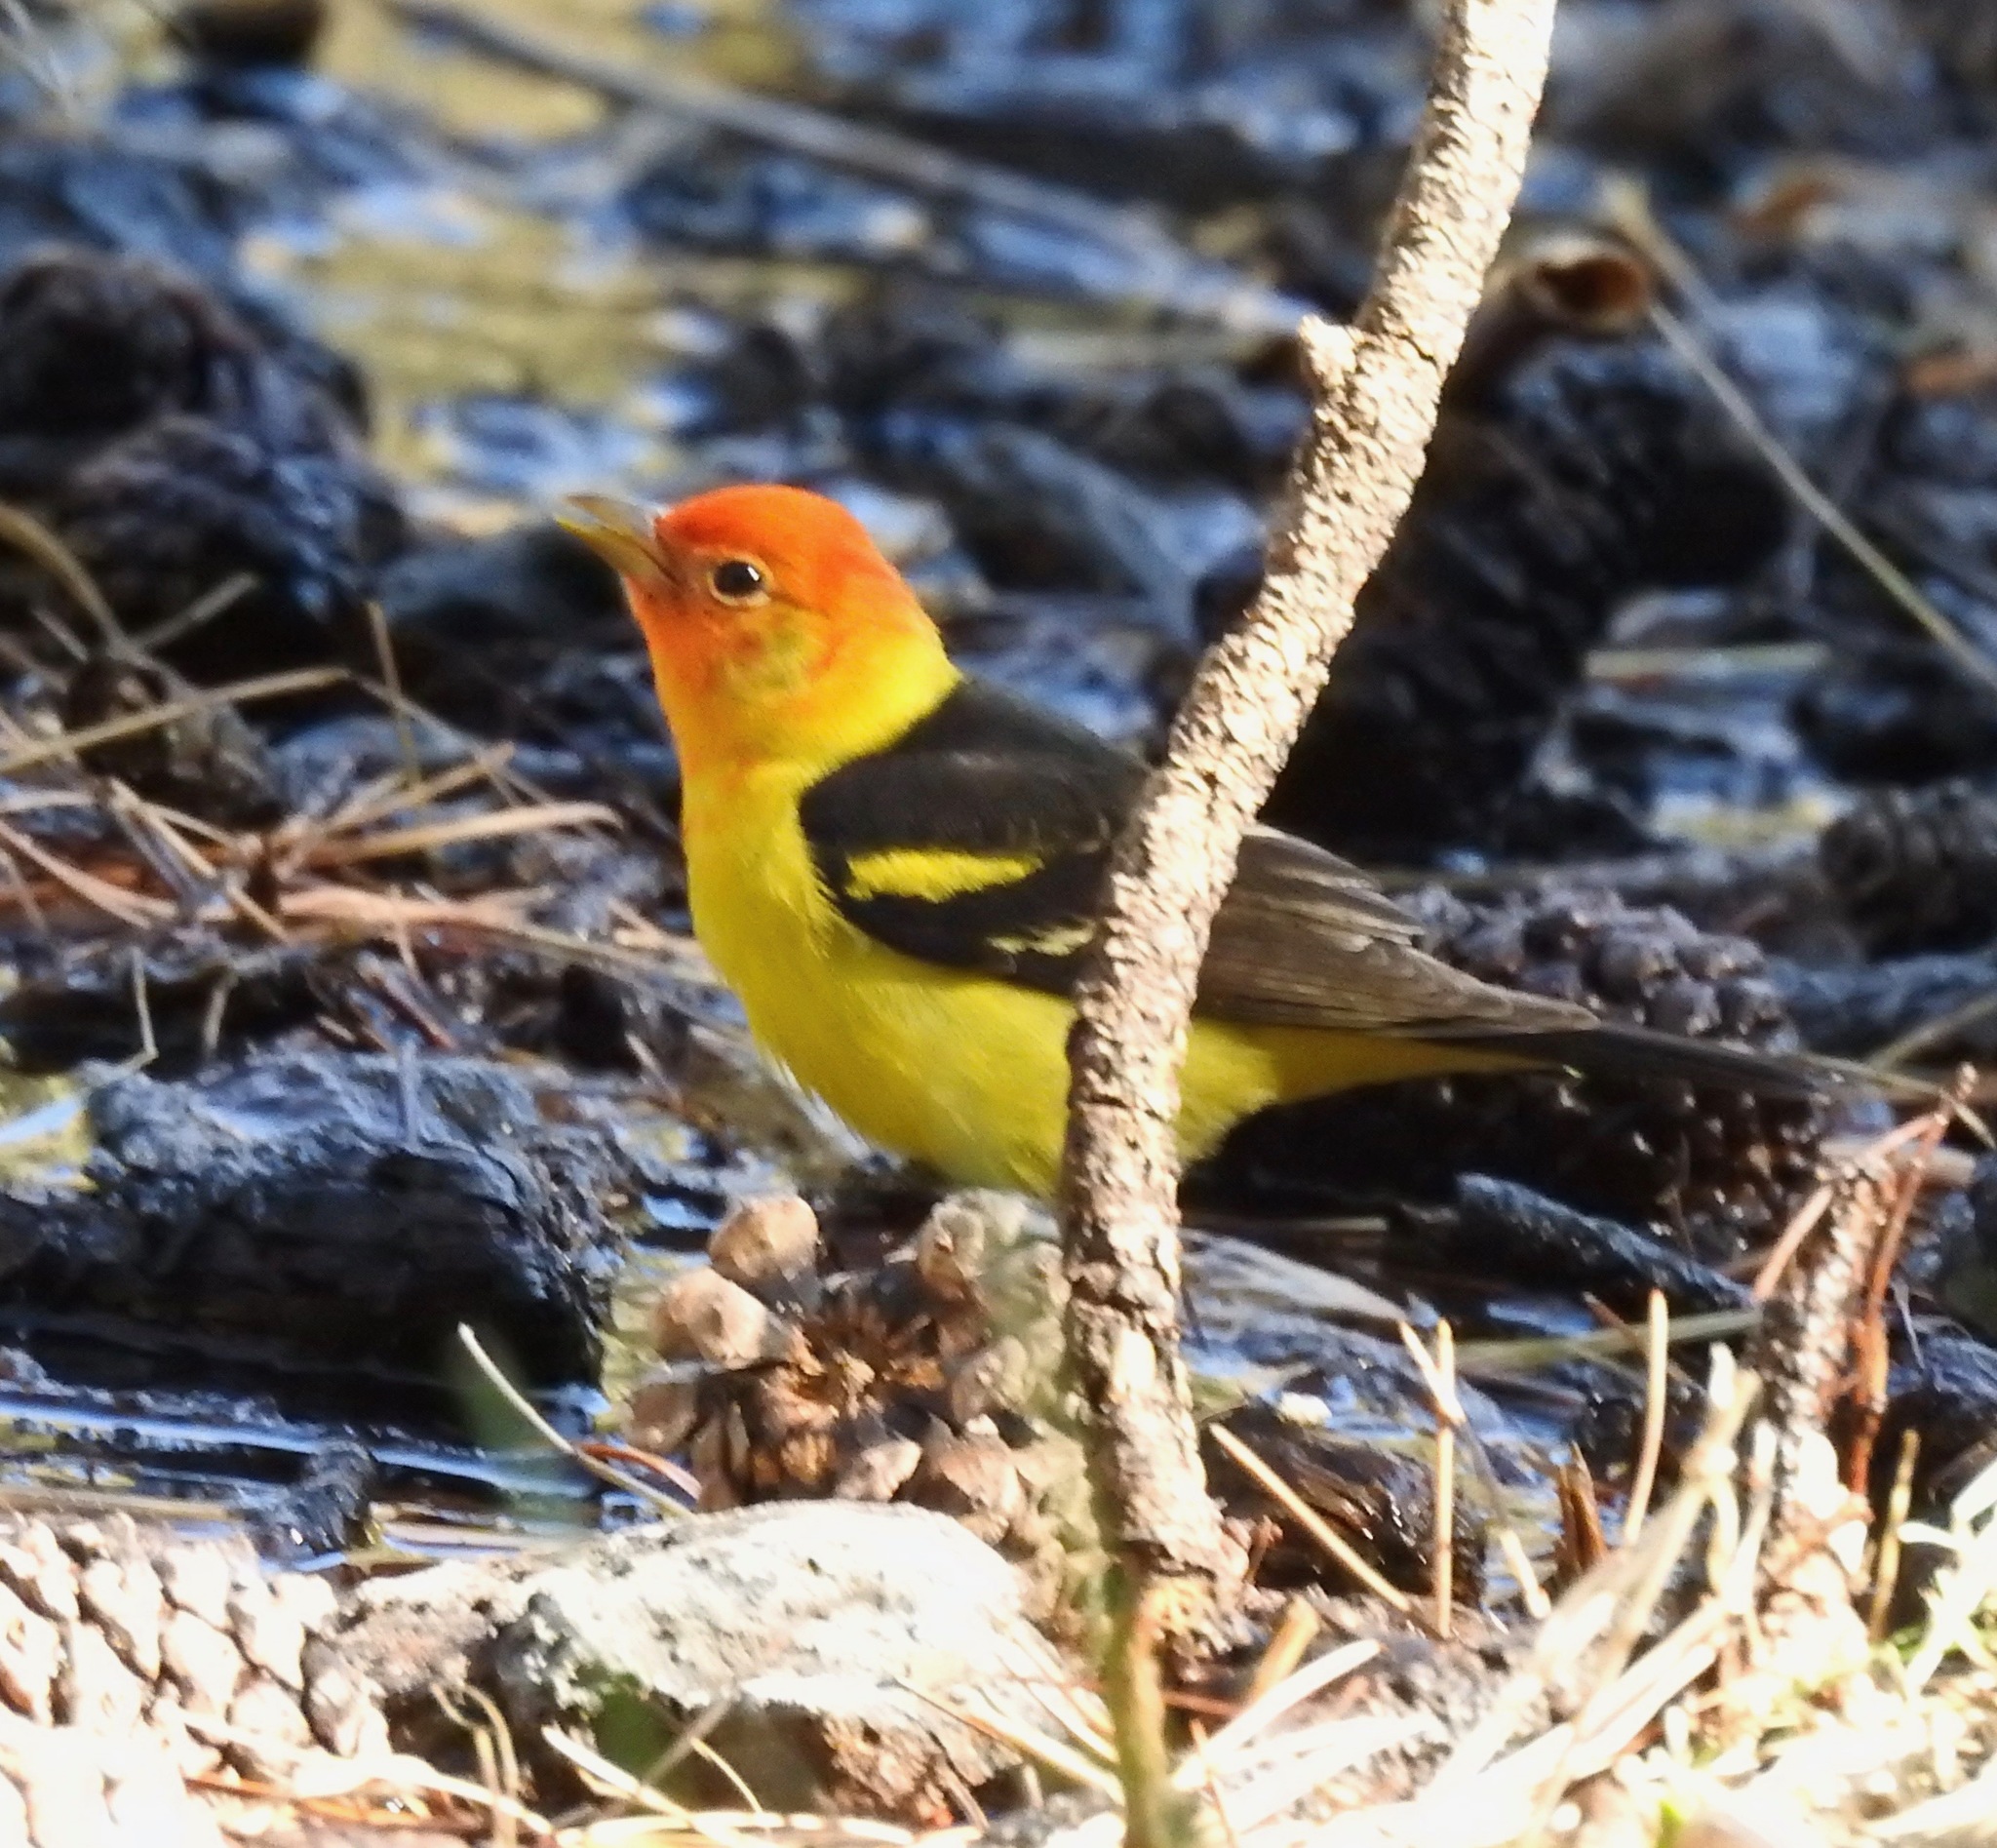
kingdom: Animalia
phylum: Chordata
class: Aves
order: Passeriformes
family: Cardinalidae
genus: Piranga
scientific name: Piranga ludoviciana
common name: Western tanager
